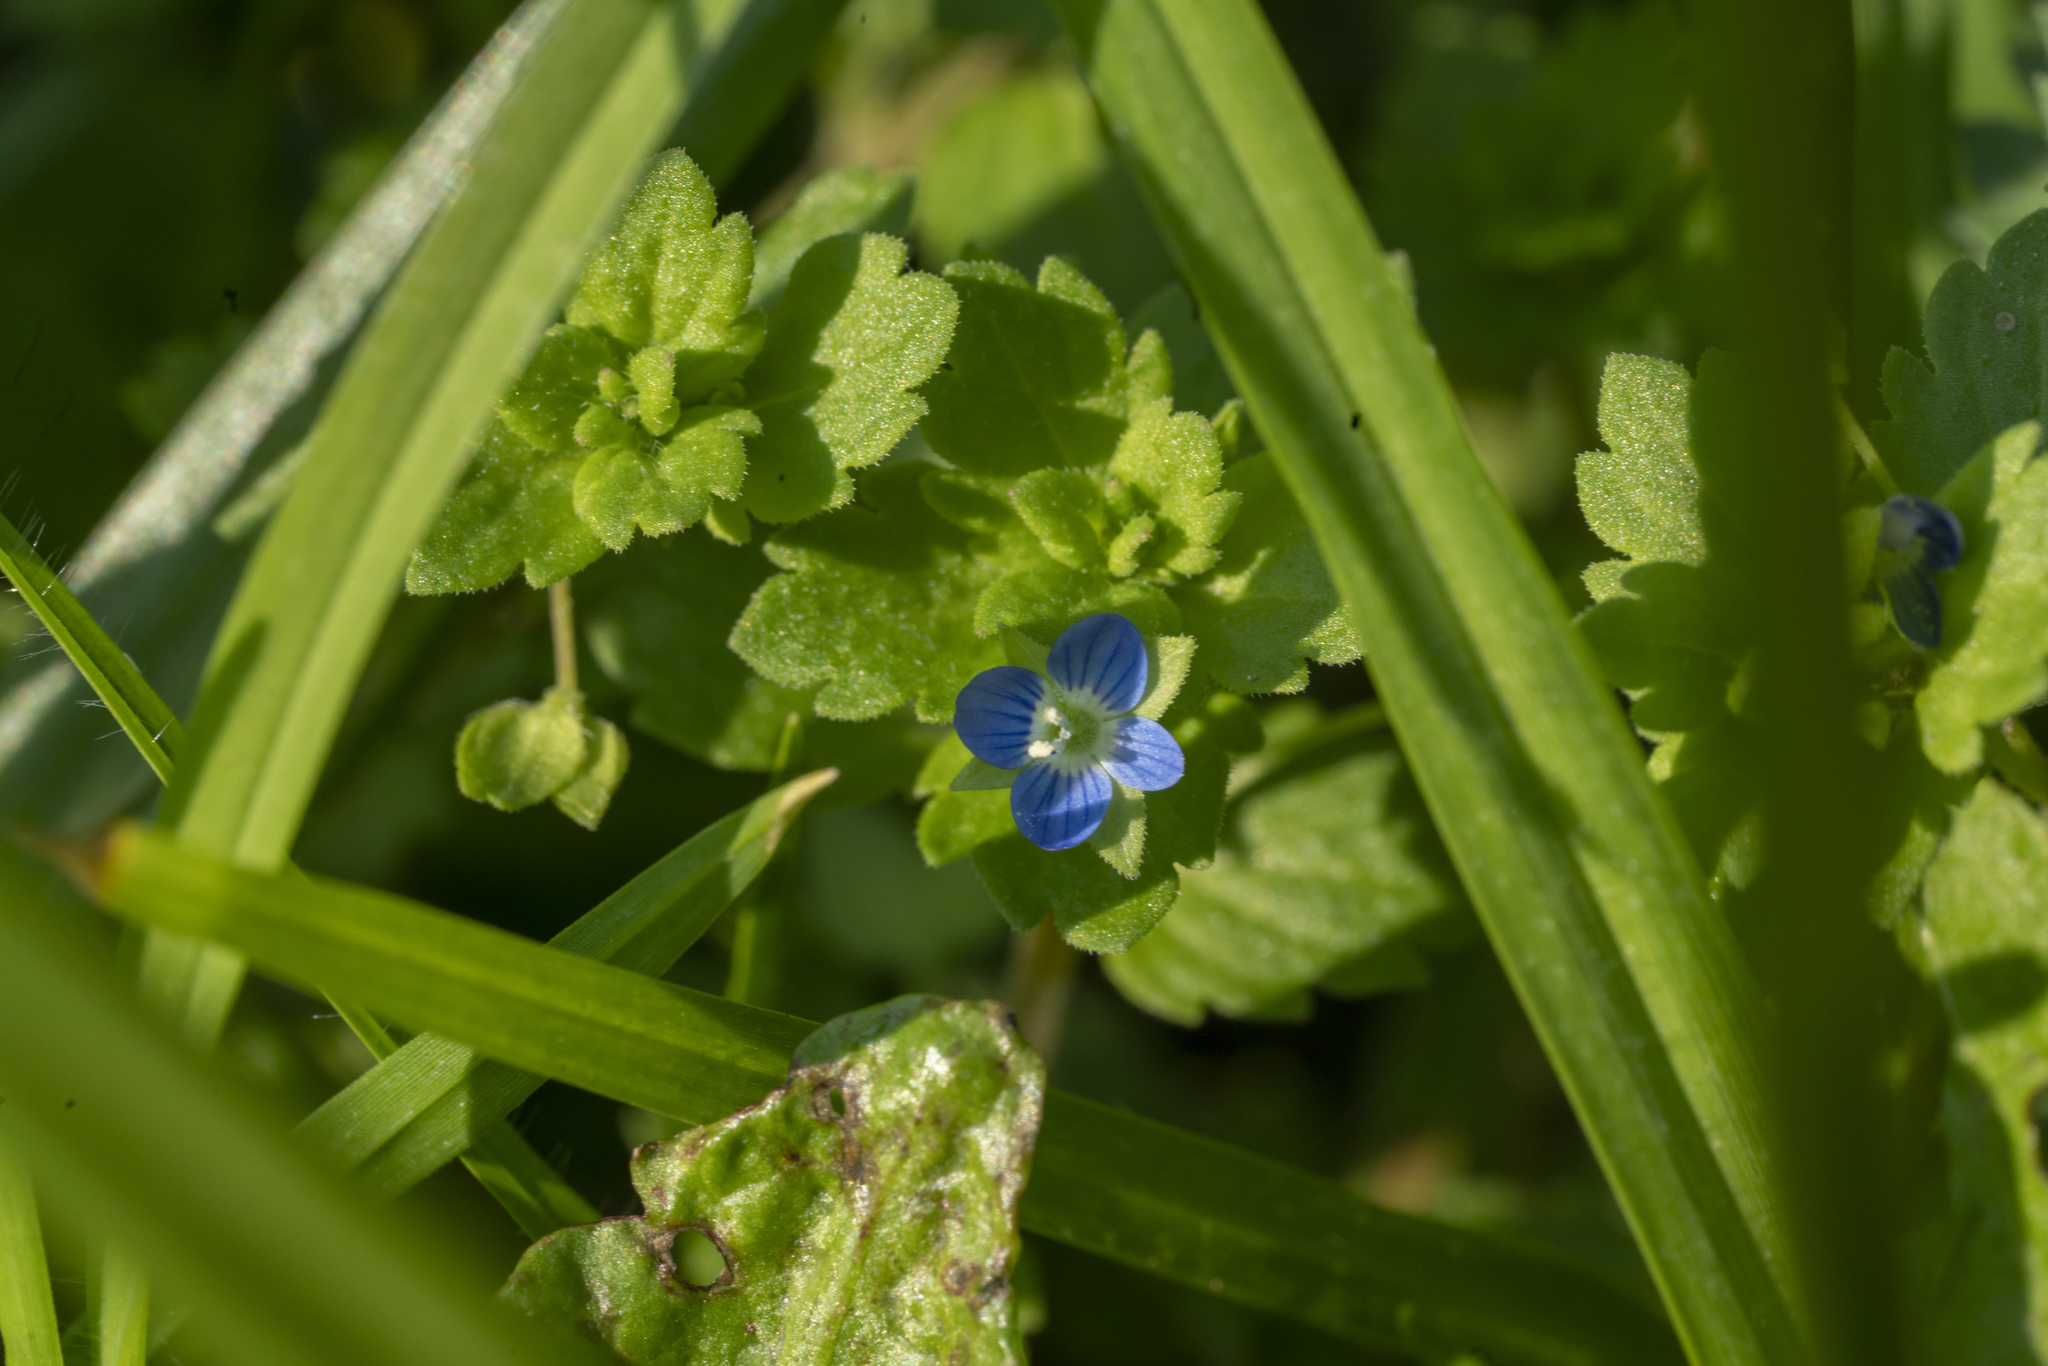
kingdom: Plantae
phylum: Tracheophyta
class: Magnoliopsida
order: Lamiales
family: Plantaginaceae
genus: Veronica
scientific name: Veronica polita
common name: Grey field-speedwell
